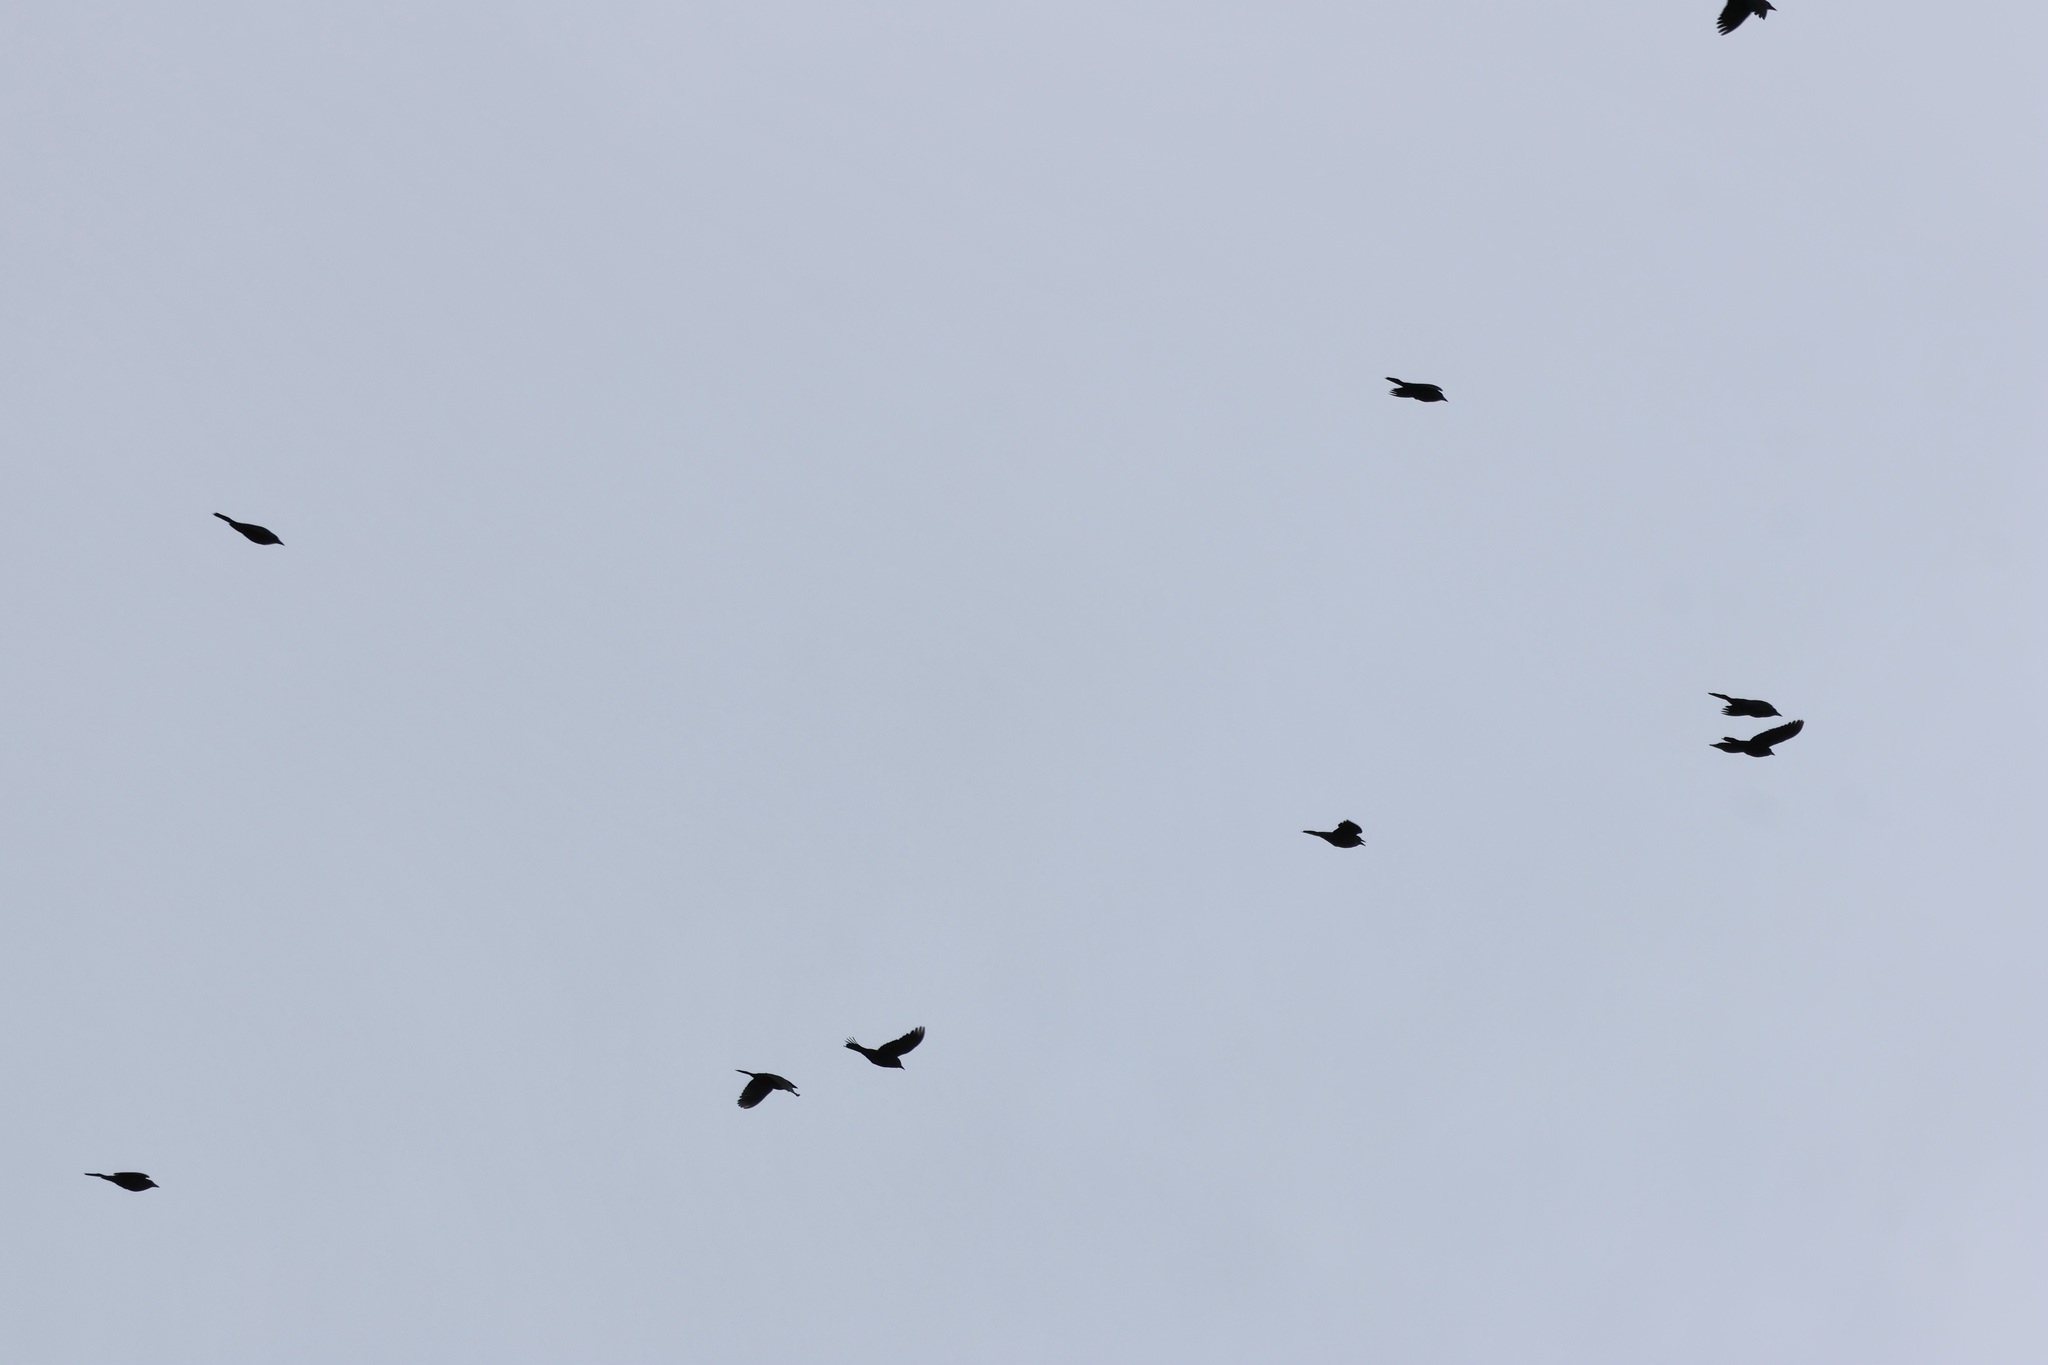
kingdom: Animalia
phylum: Chordata
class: Aves
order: Passeriformes
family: Icteridae
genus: Euphagus
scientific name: Euphagus carolinus
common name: Rusty blackbird
